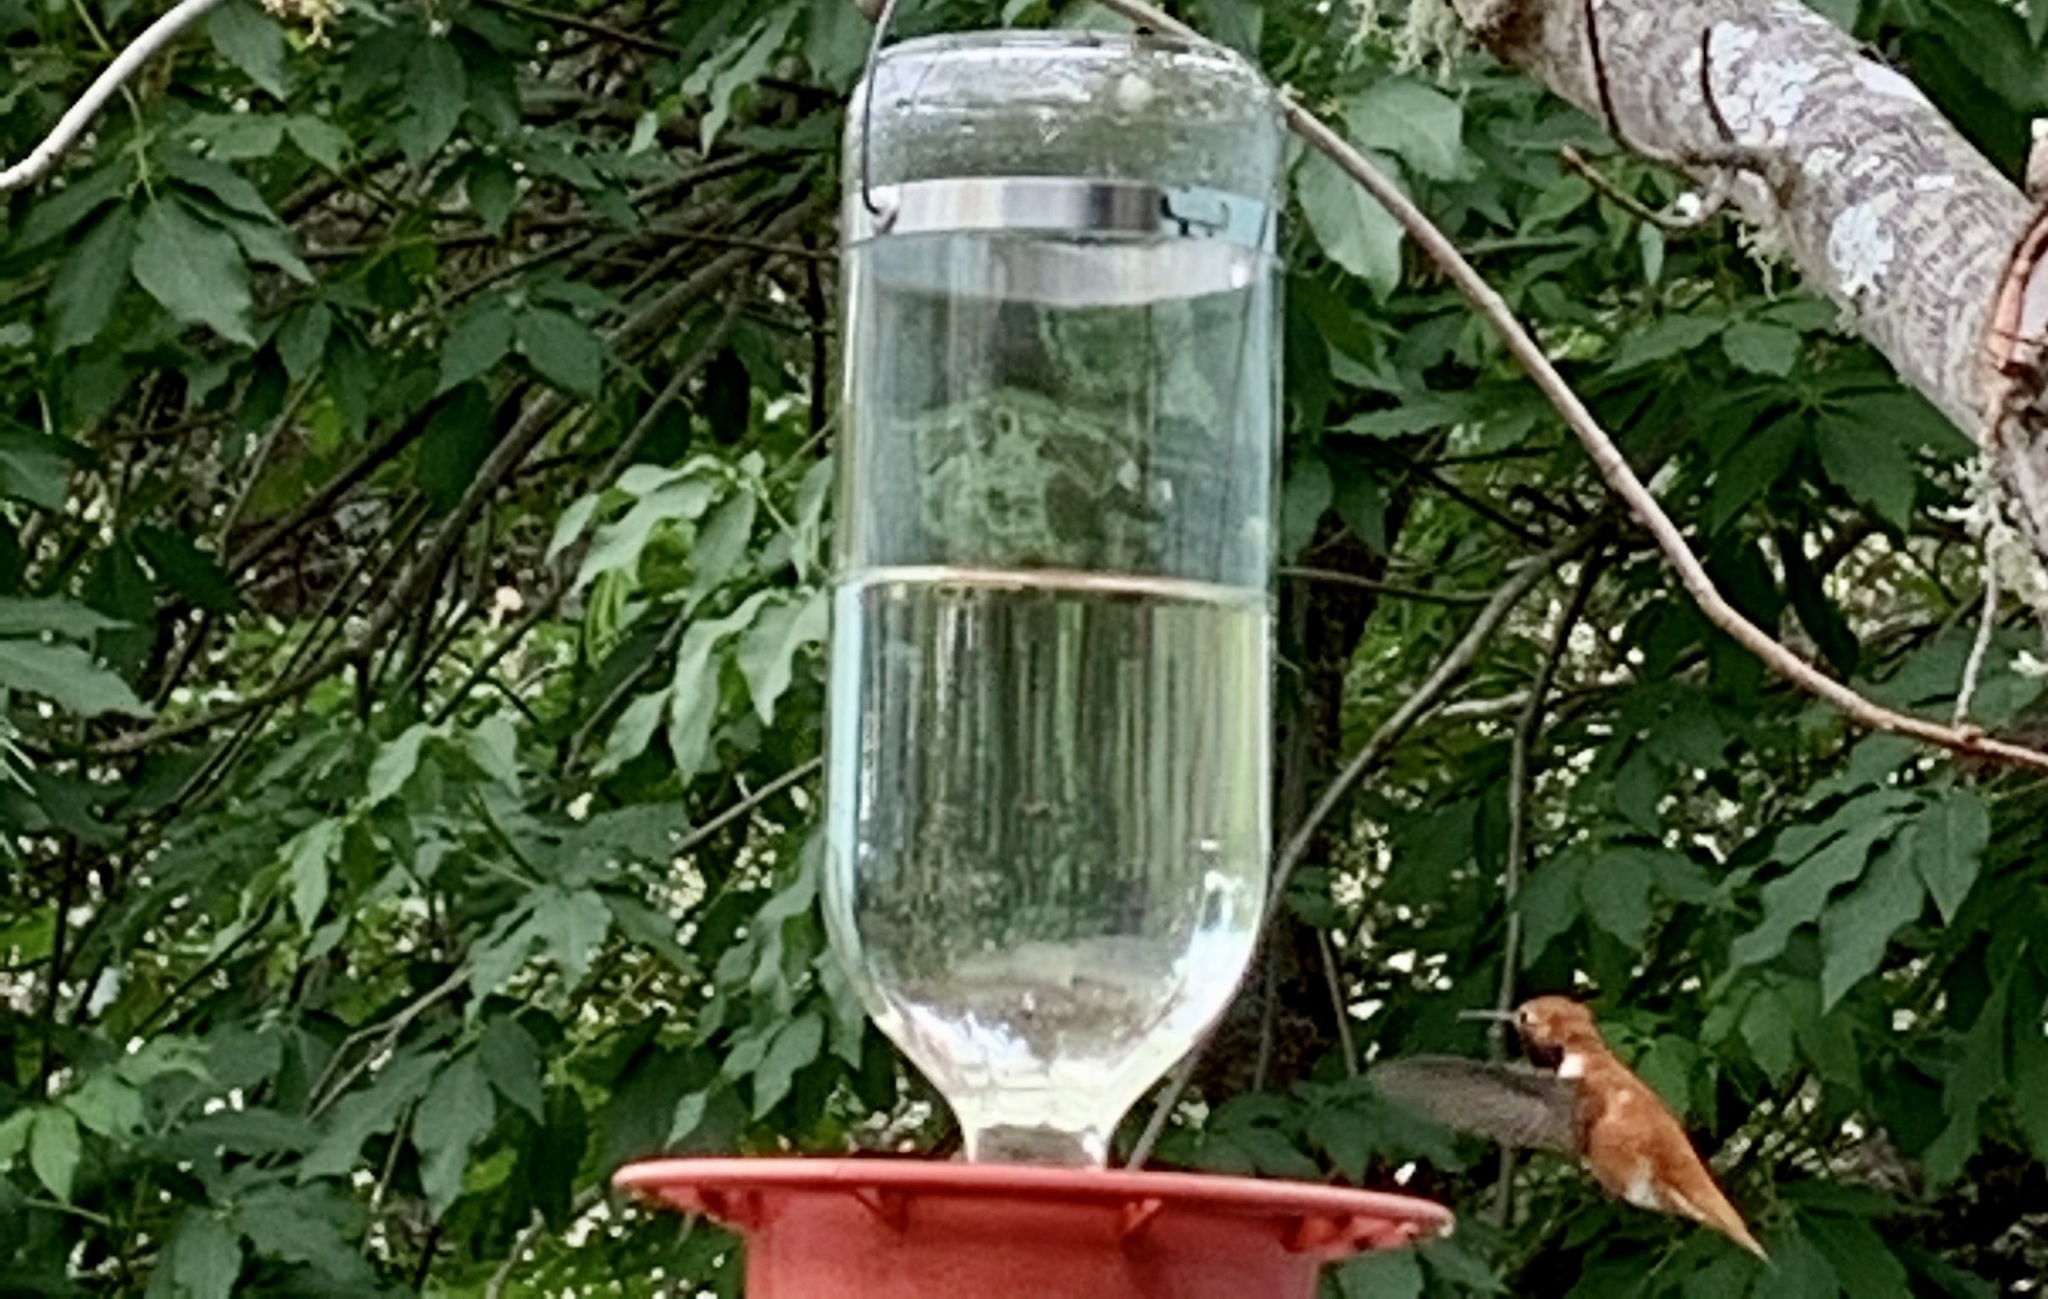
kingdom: Animalia
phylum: Chordata
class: Aves
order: Apodiformes
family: Trochilidae
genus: Selasphorus
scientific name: Selasphorus rufus
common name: Rufous hummingbird
